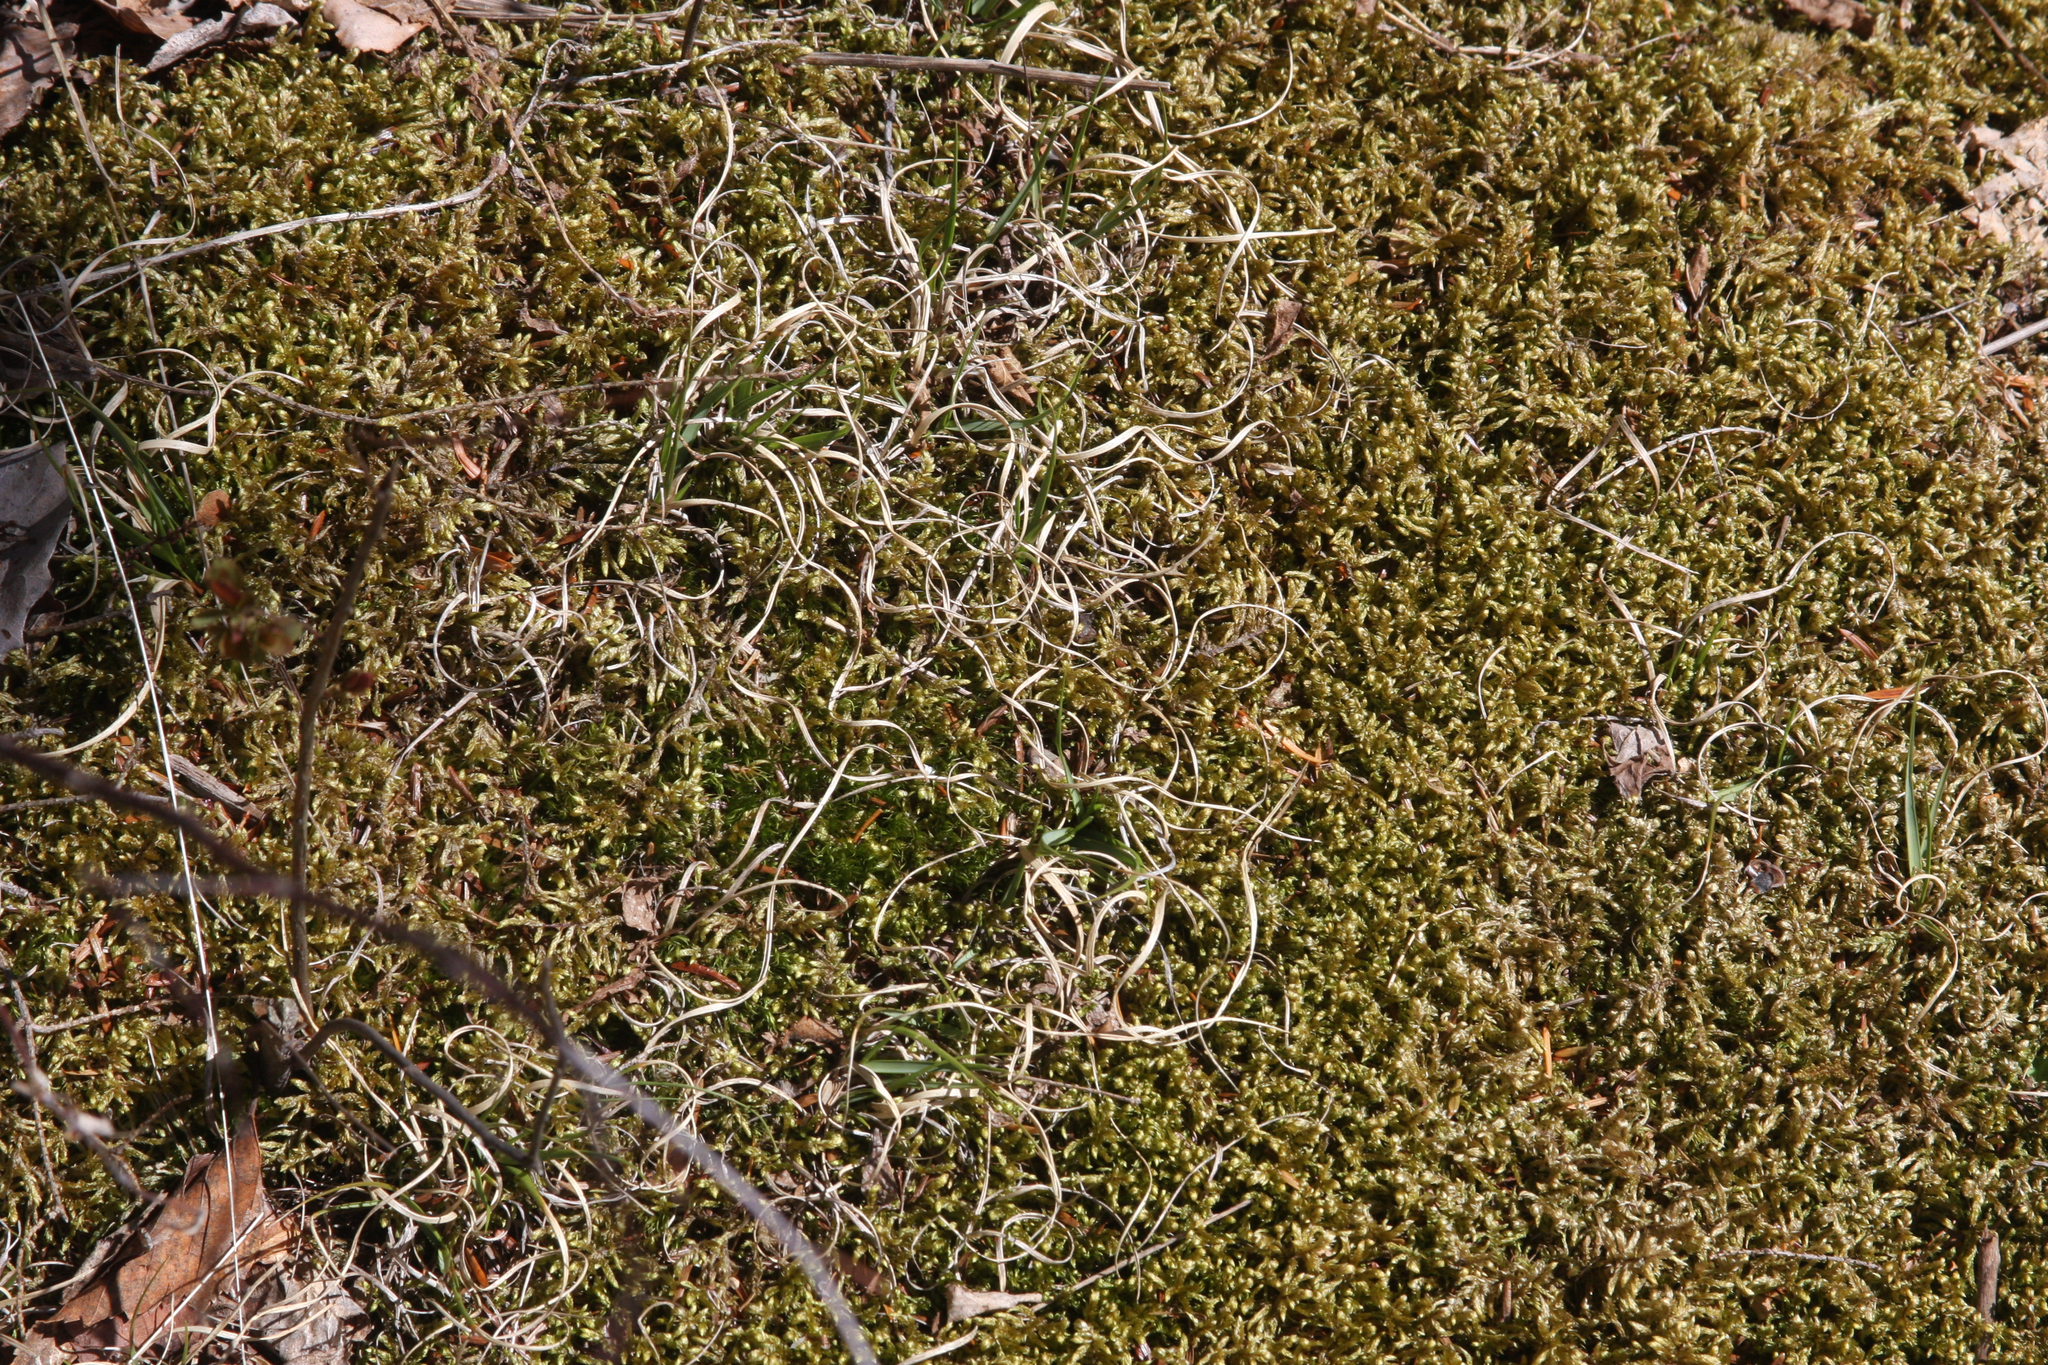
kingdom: Plantae
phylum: Tracheophyta
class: Liliopsida
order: Poales
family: Poaceae
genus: Danthonia
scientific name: Danthonia spicata
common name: Common wild oatgrass
